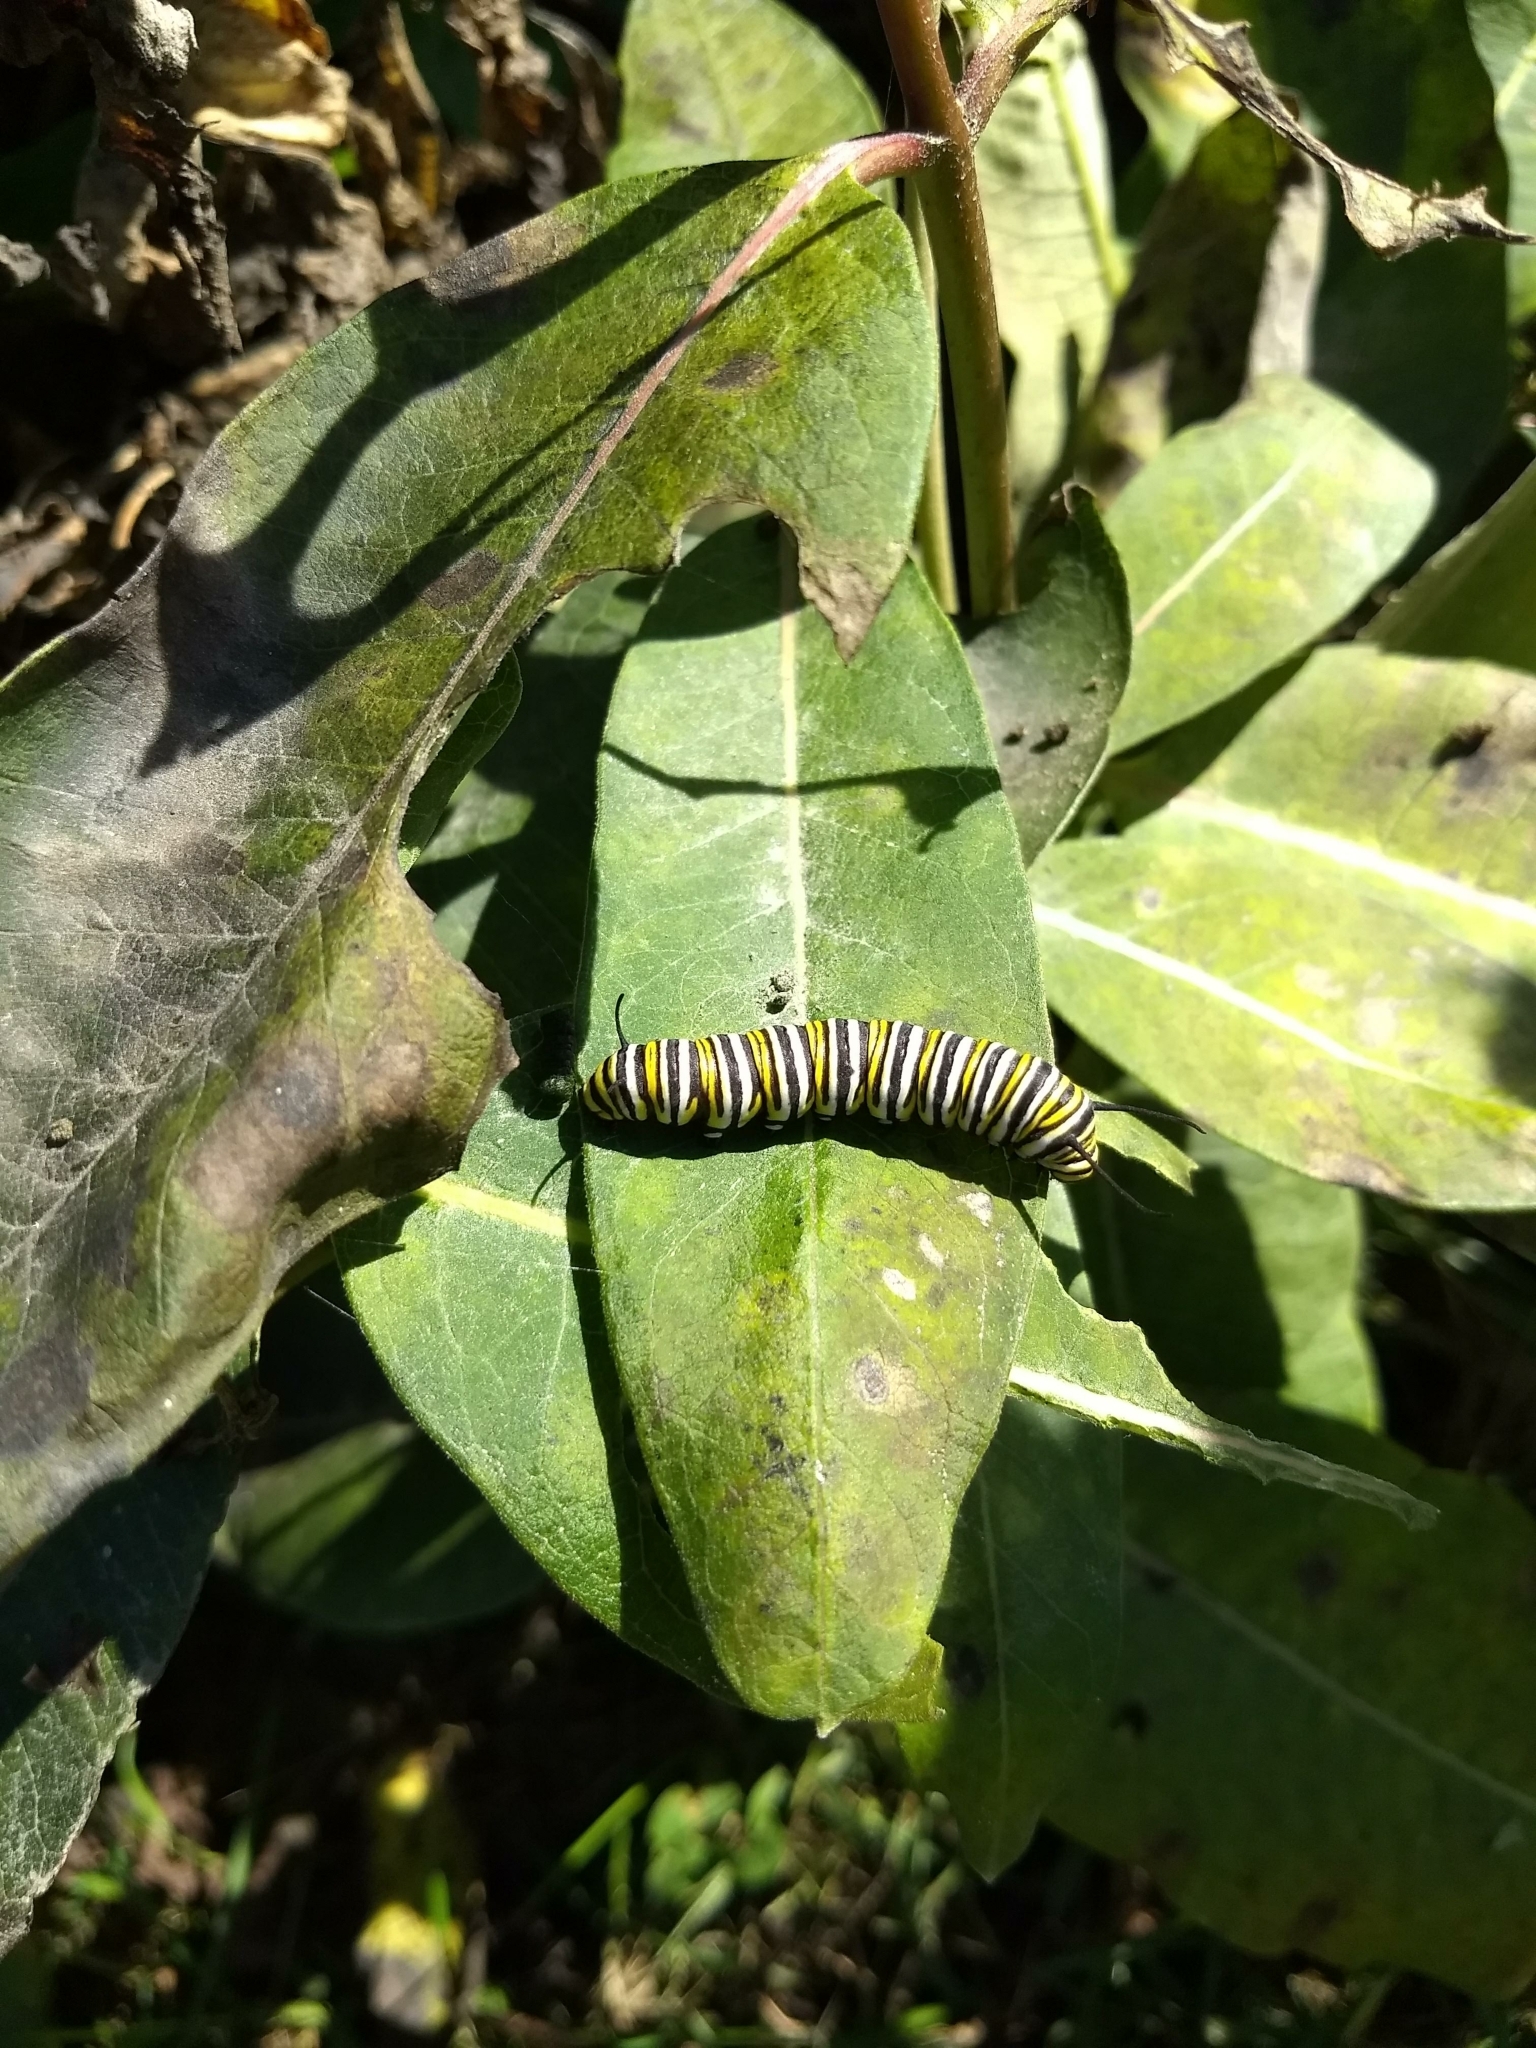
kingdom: Animalia
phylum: Arthropoda
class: Insecta
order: Lepidoptera
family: Nymphalidae
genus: Danaus
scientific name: Danaus plexippus
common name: Monarch
